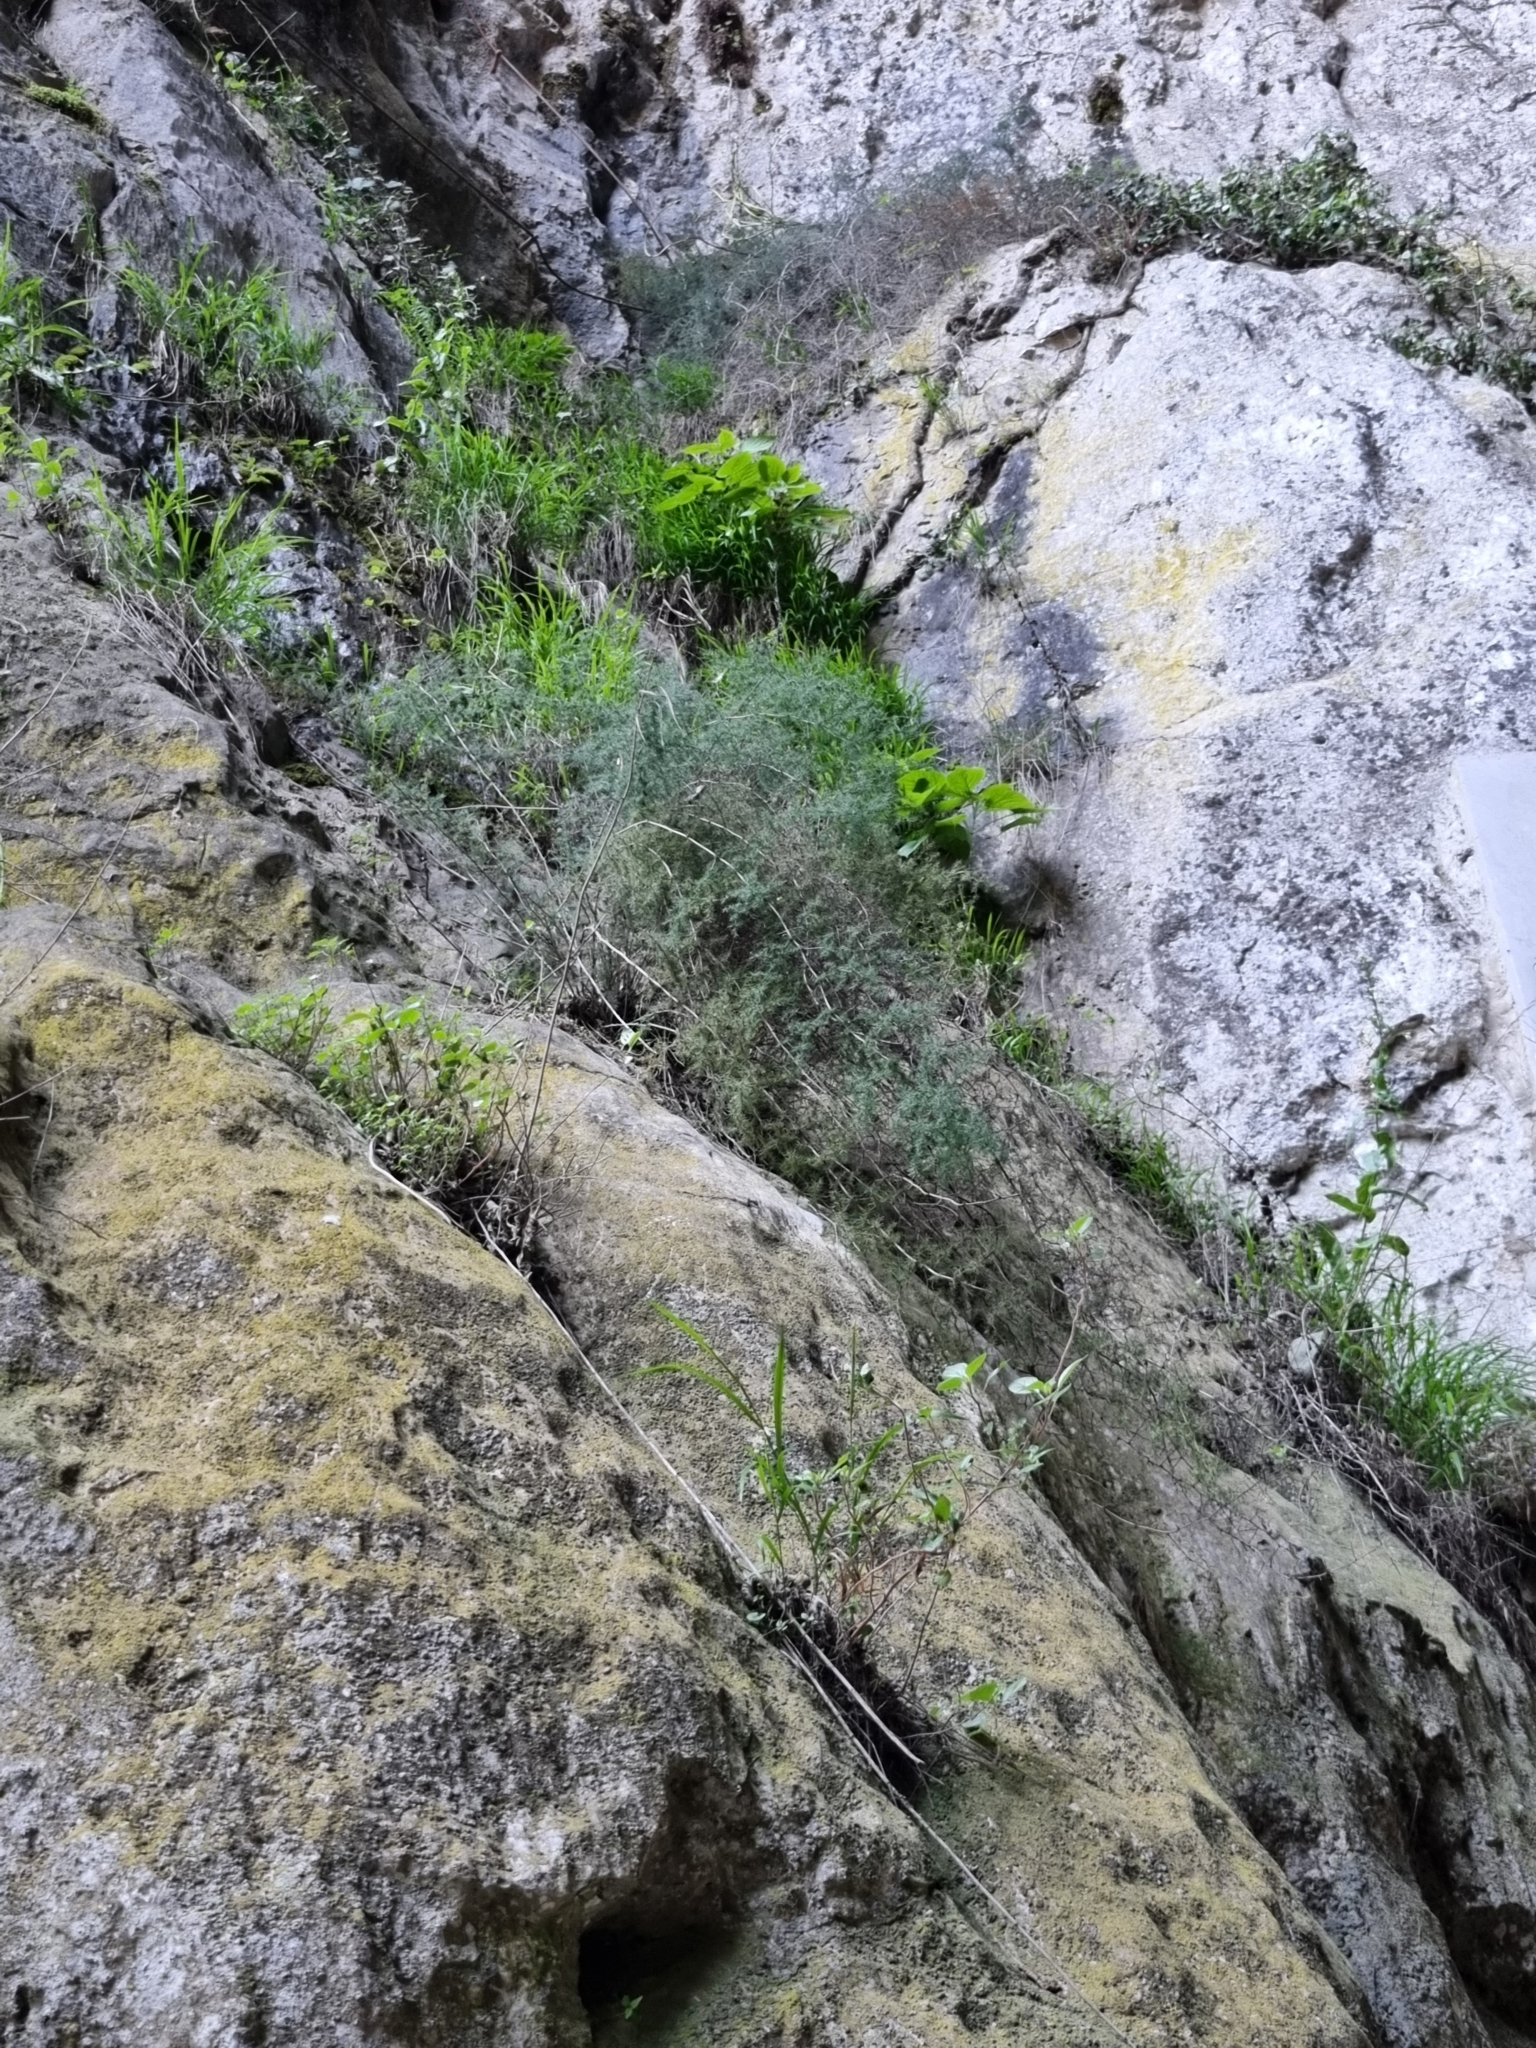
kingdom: Plantae
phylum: Tracheophyta
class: Liliopsida
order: Asparagales
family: Asparagaceae
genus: Asparagus
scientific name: Asparagus acutifolius
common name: Wild asparagus
